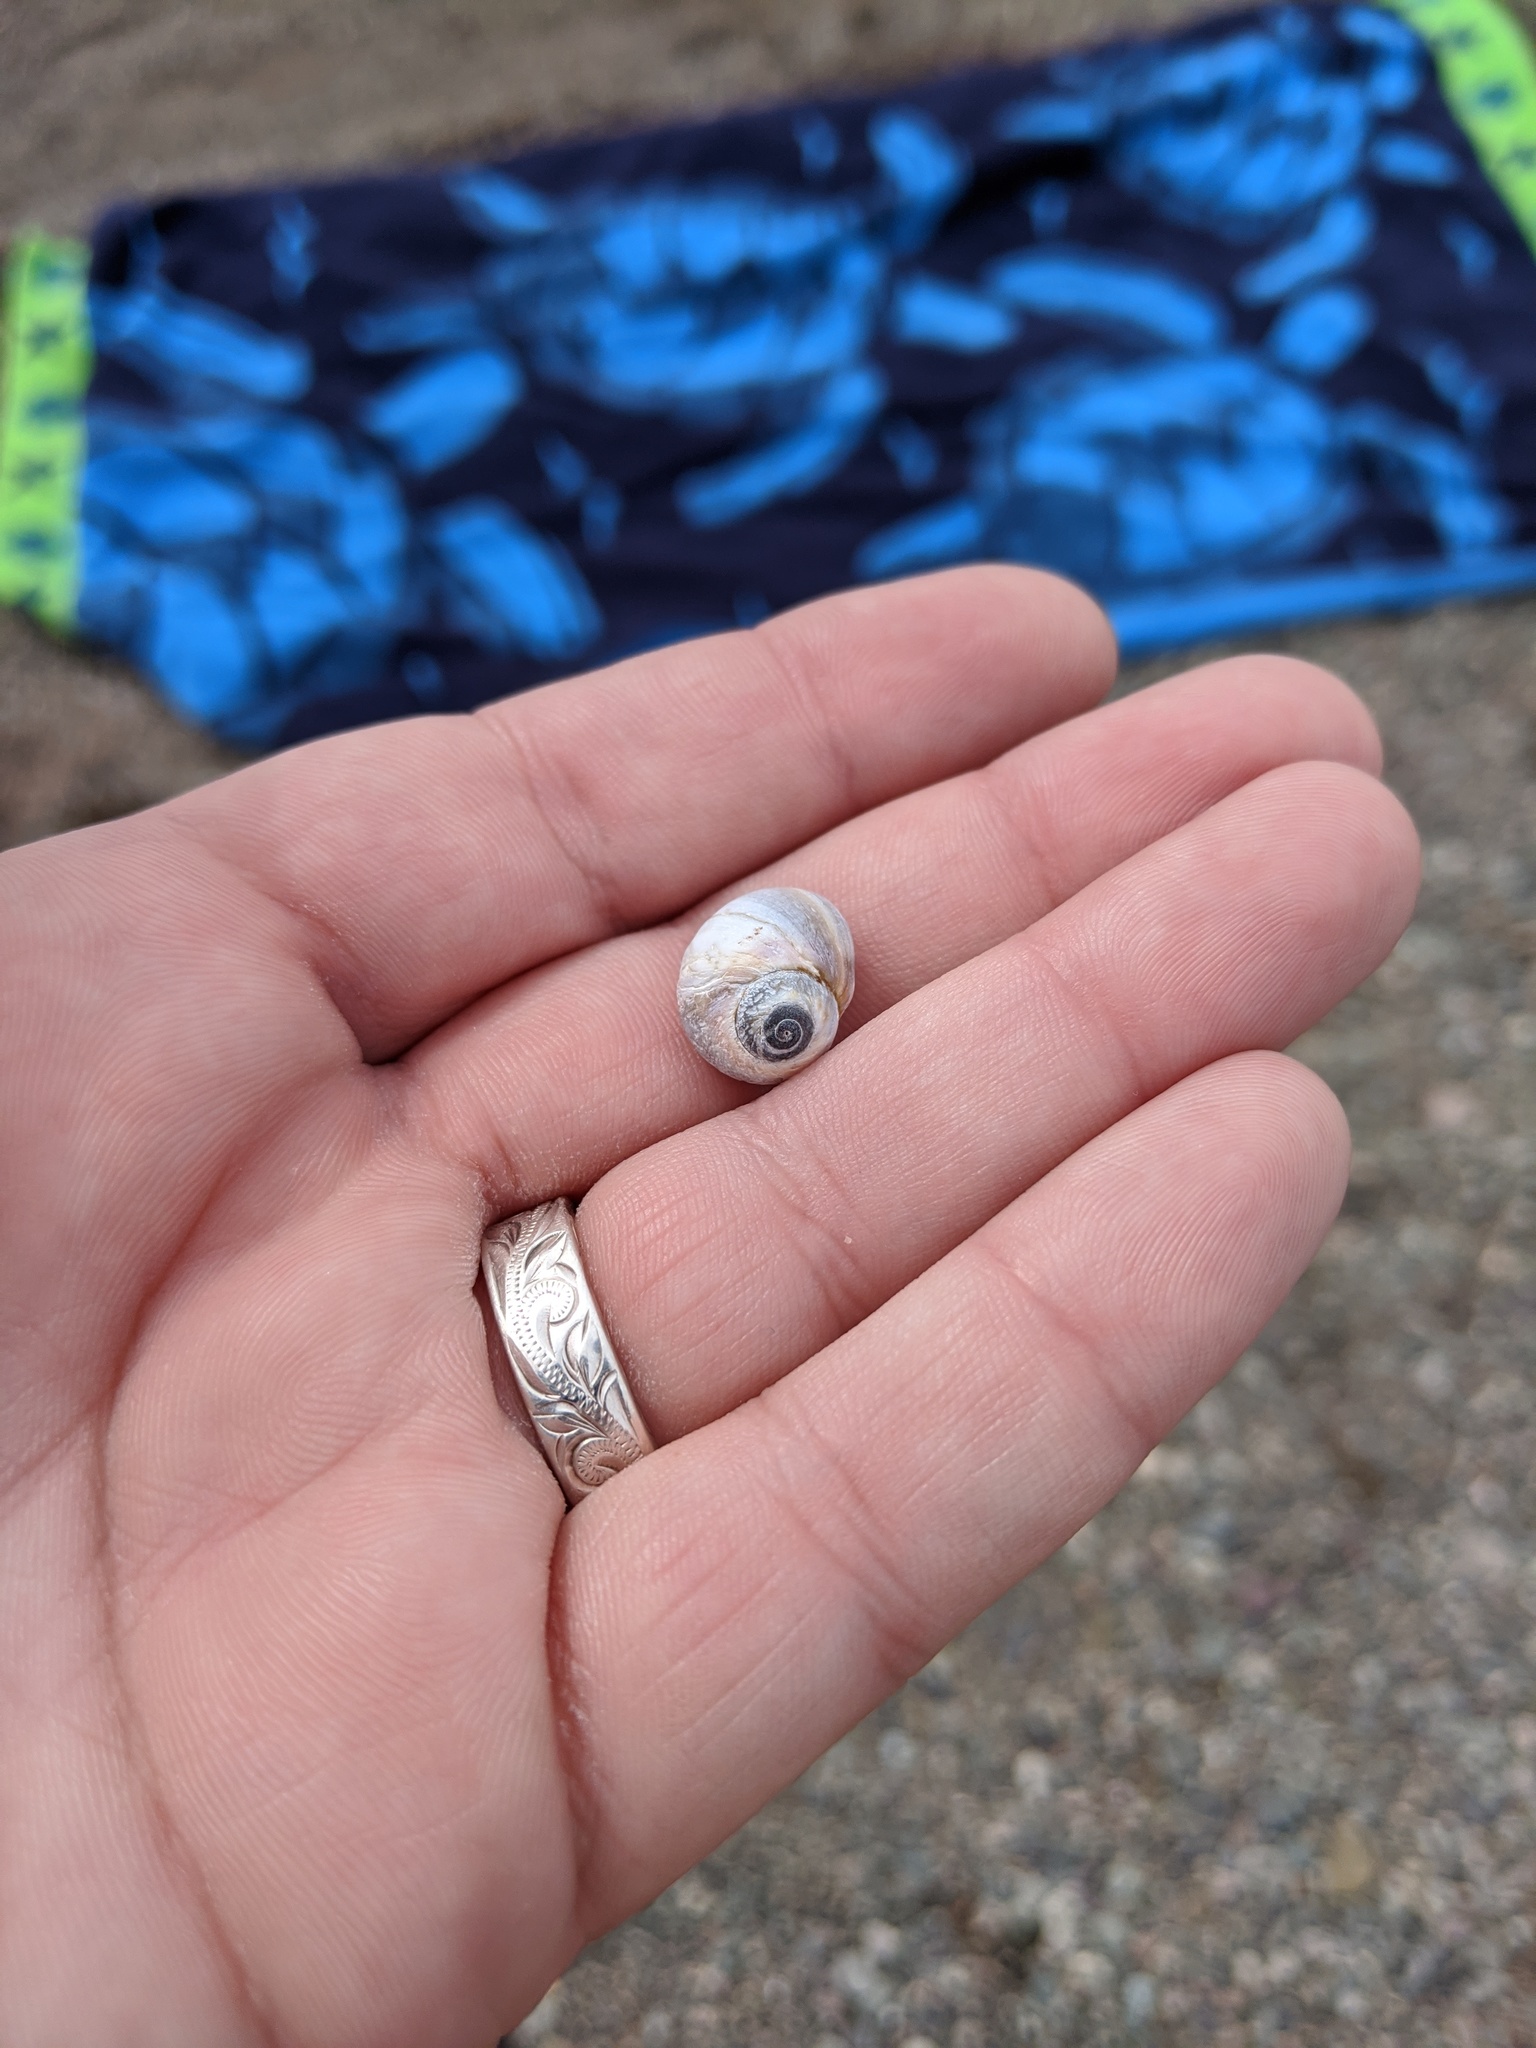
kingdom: Animalia
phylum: Mollusca
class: Gastropoda
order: Littorinimorpha
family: Naticidae
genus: Euspira
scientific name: Euspira heros
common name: Common northern moonsnail
